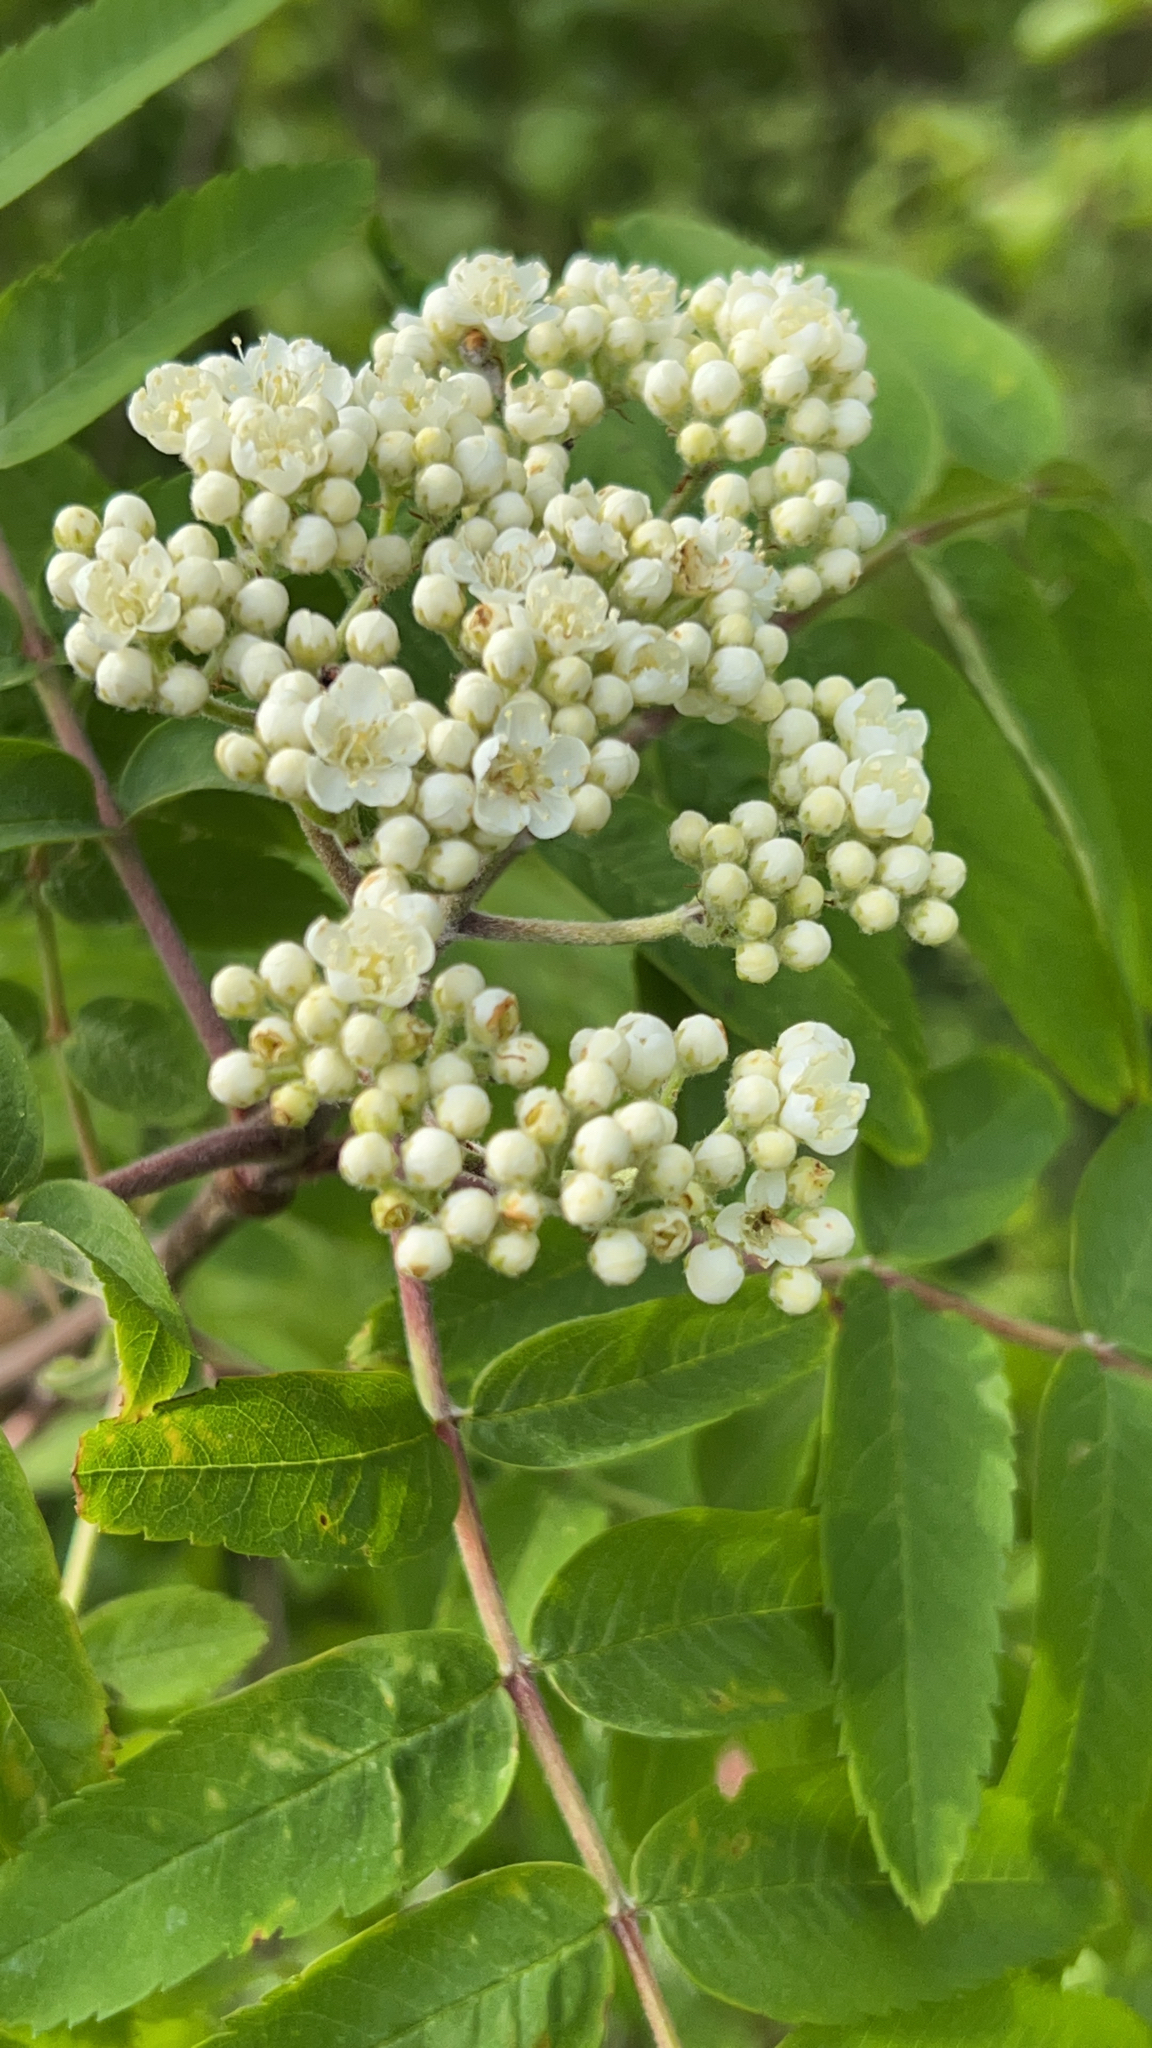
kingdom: Plantae
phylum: Tracheophyta
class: Magnoliopsida
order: Rosales
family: Rosaceae
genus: Sorbus
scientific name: Sorbus aucuparia
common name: Rowan
